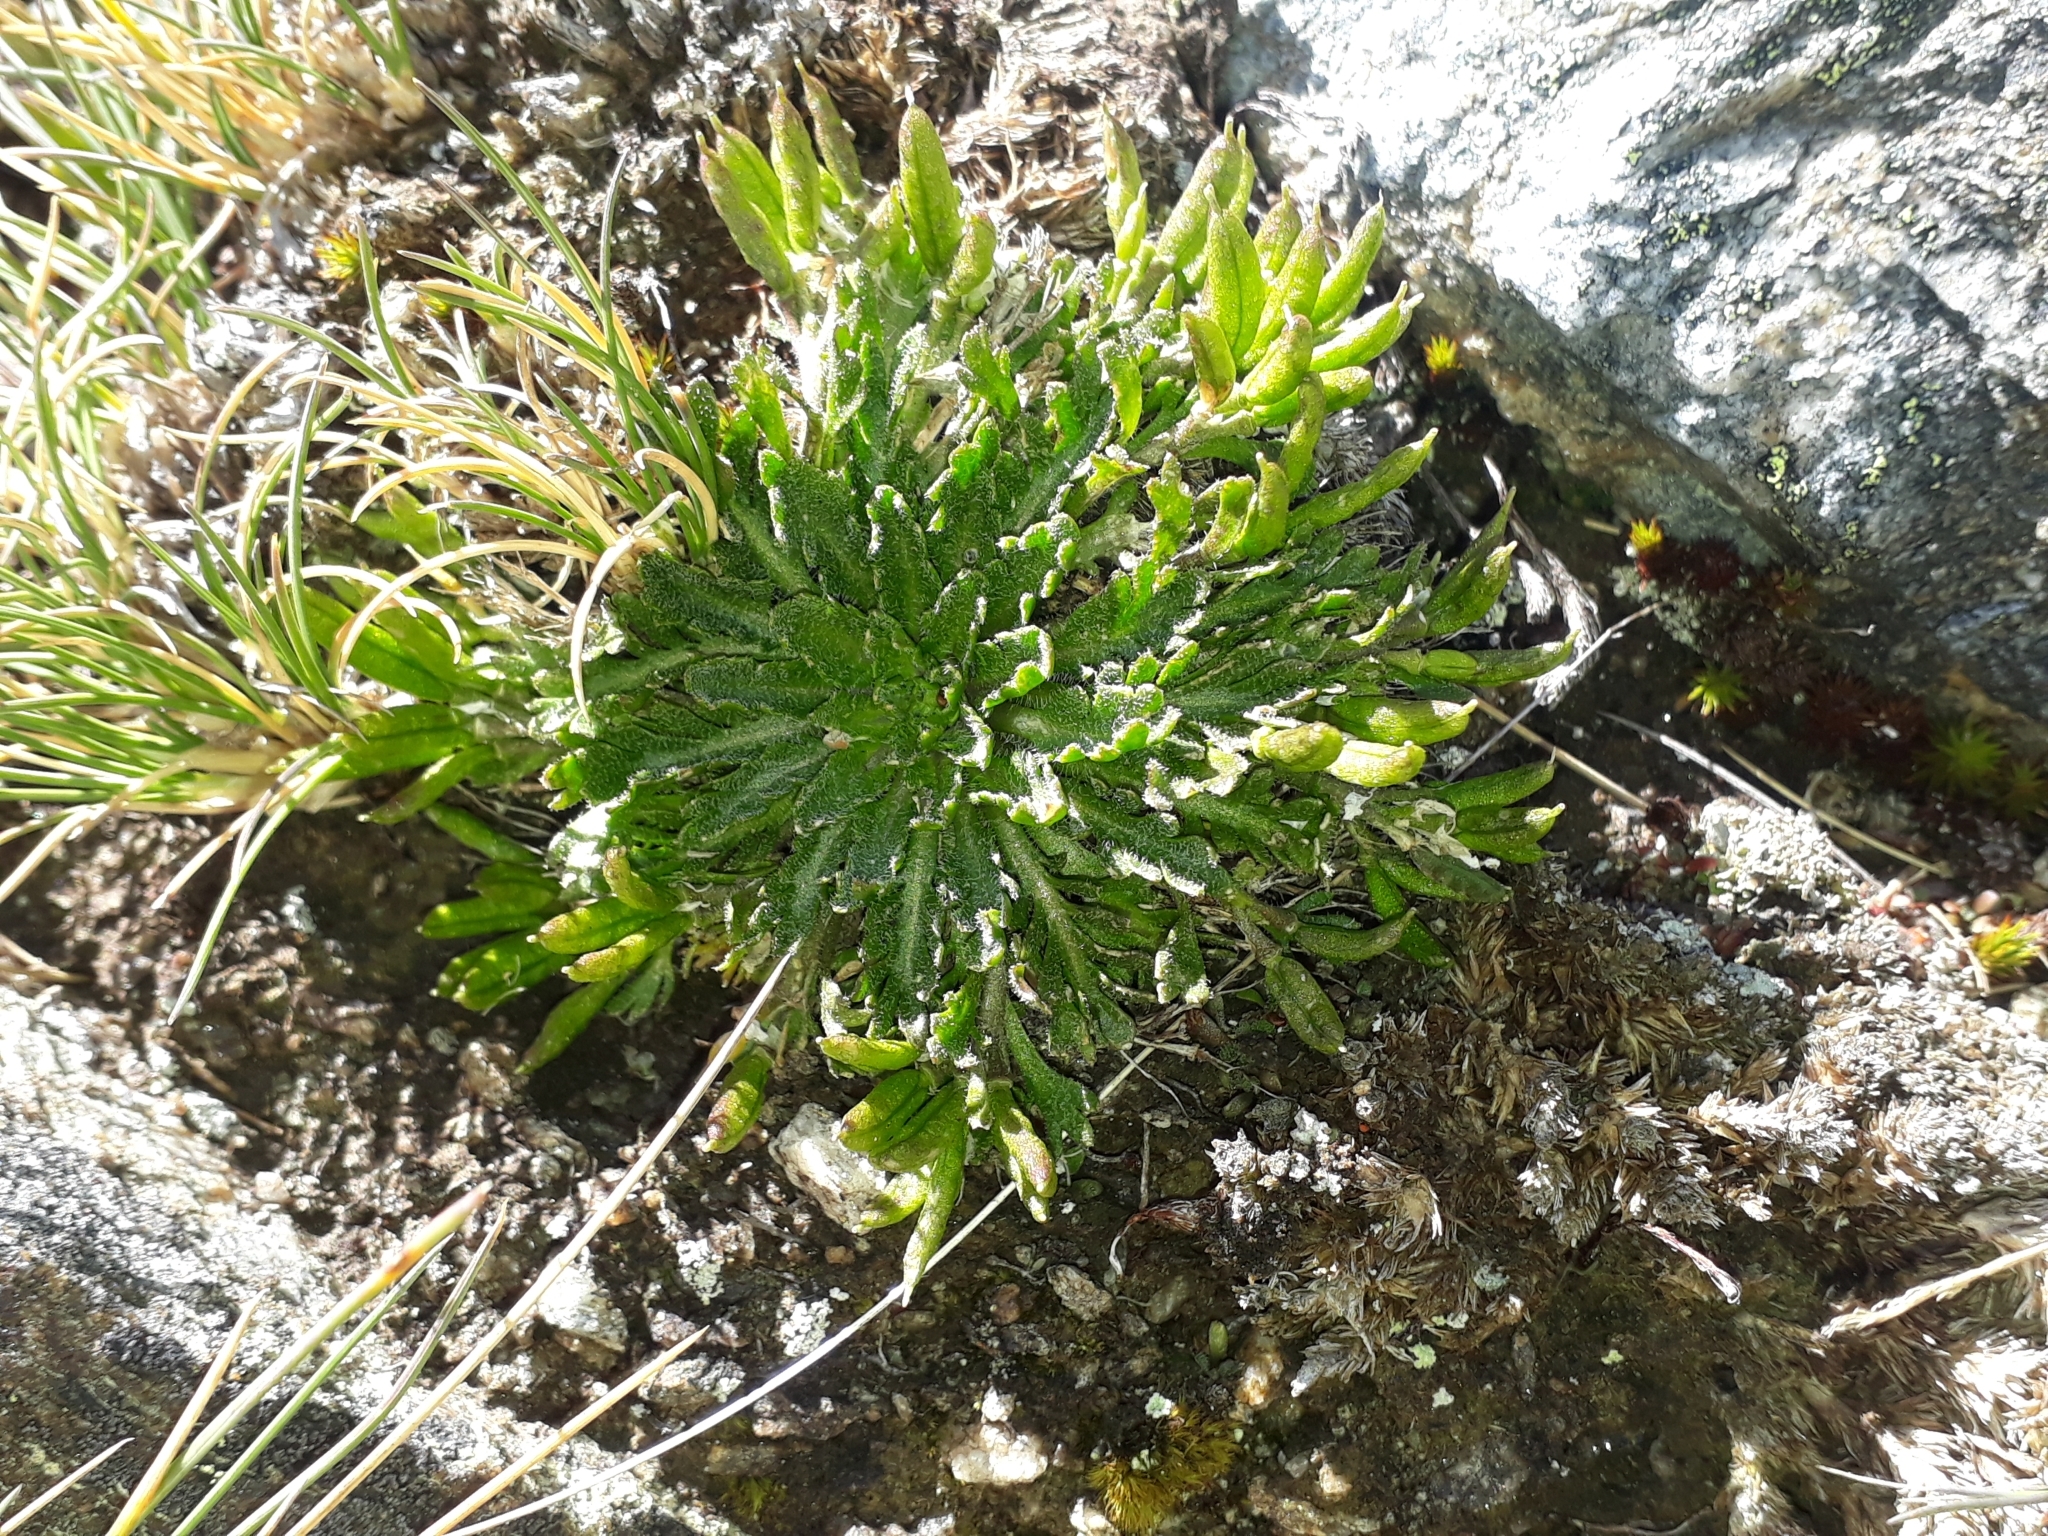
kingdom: Plantae
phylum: Tracheophyta
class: Magnoliopsida
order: Brassicales
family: Brassicaceae
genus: Pachycladon
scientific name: Pachycladon novae-zelandiae
